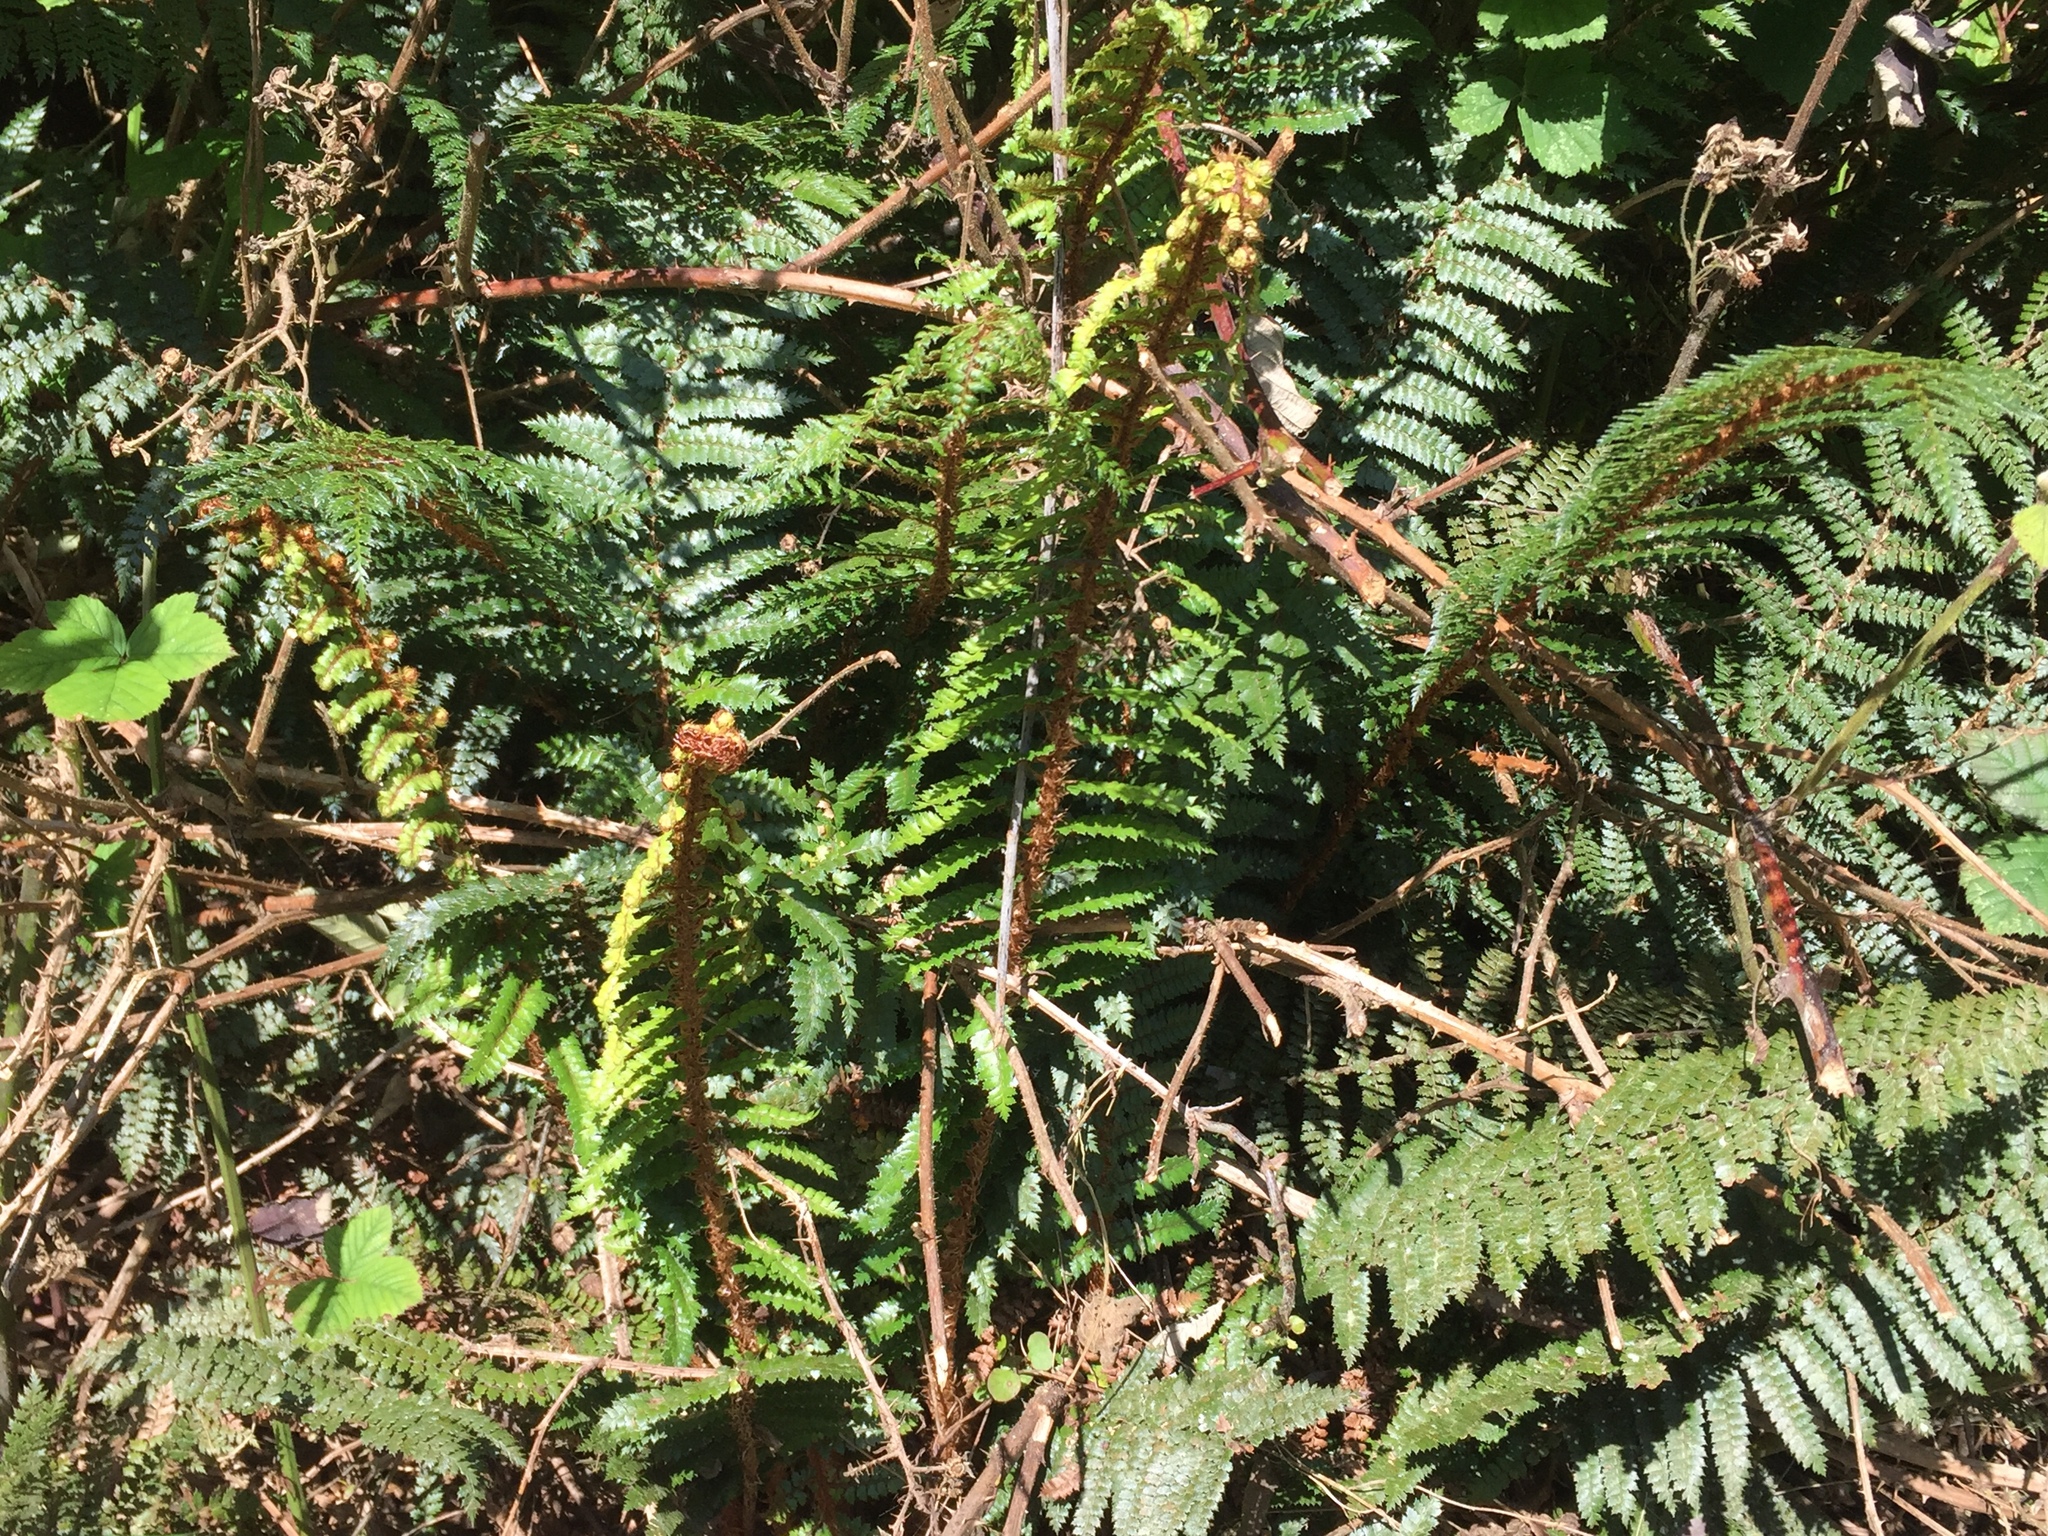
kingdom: Plantae
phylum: Tracheophyta
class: Polypodiopsida
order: Polypodiales
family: Dryopteridaceae
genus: Polystichum
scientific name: Polystichum vestitum
